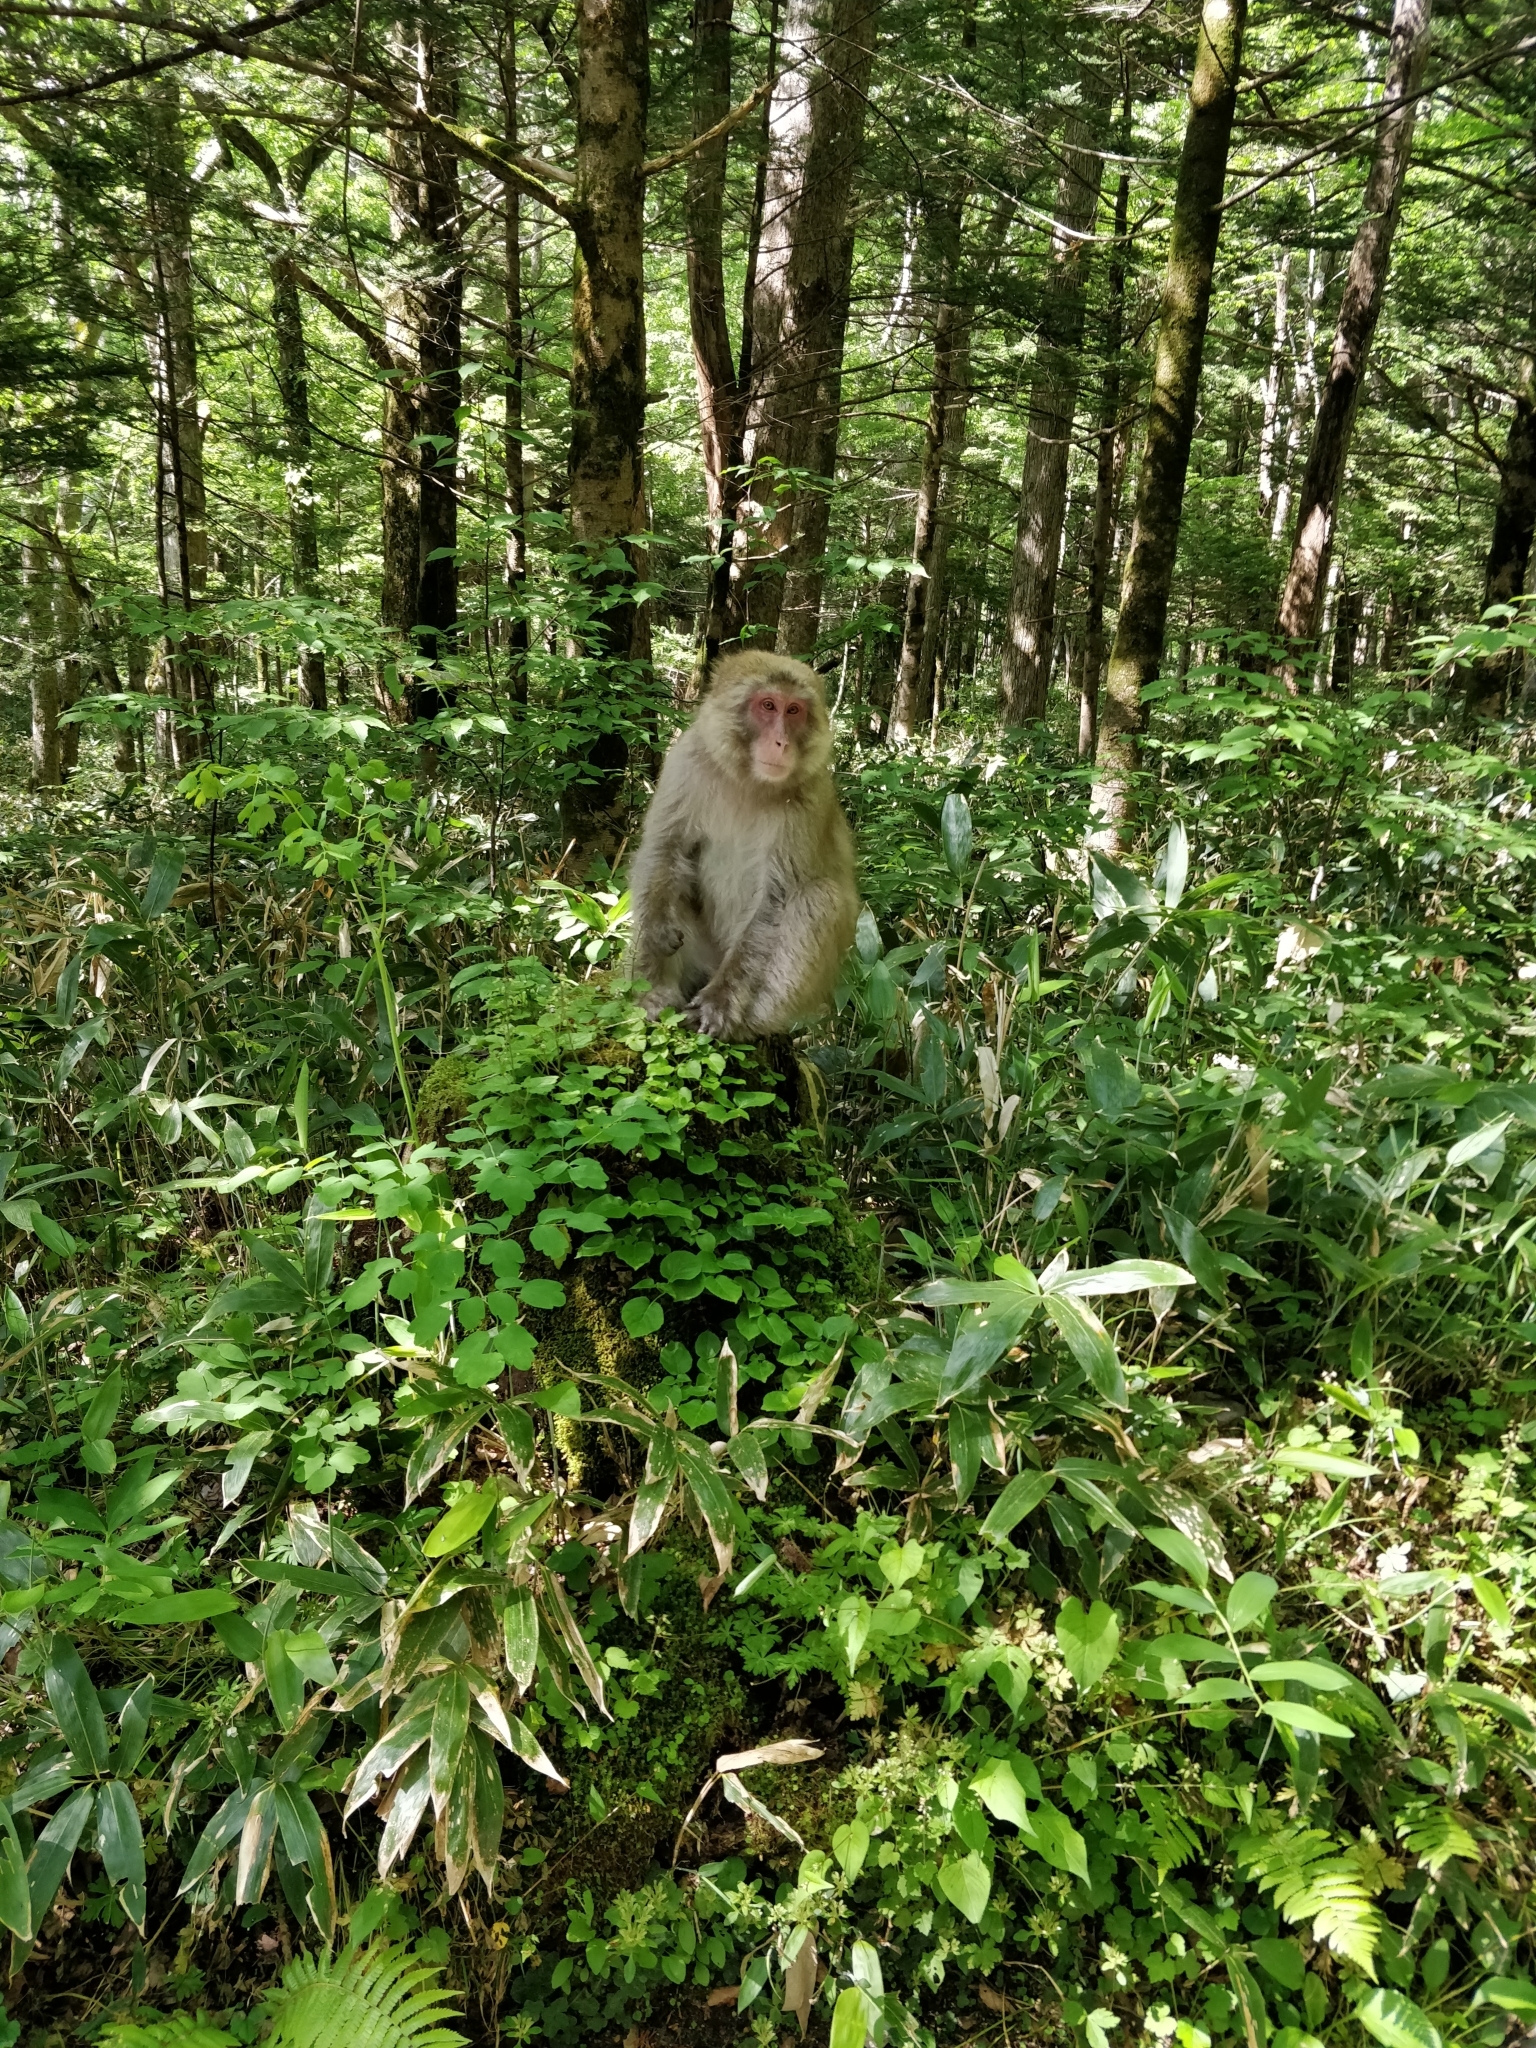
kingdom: Animalia
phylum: Chordata
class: Mammalia
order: Primates
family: Cercopithecidae
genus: Macaca
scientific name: Macaca fuscata
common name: Japanese macaque
